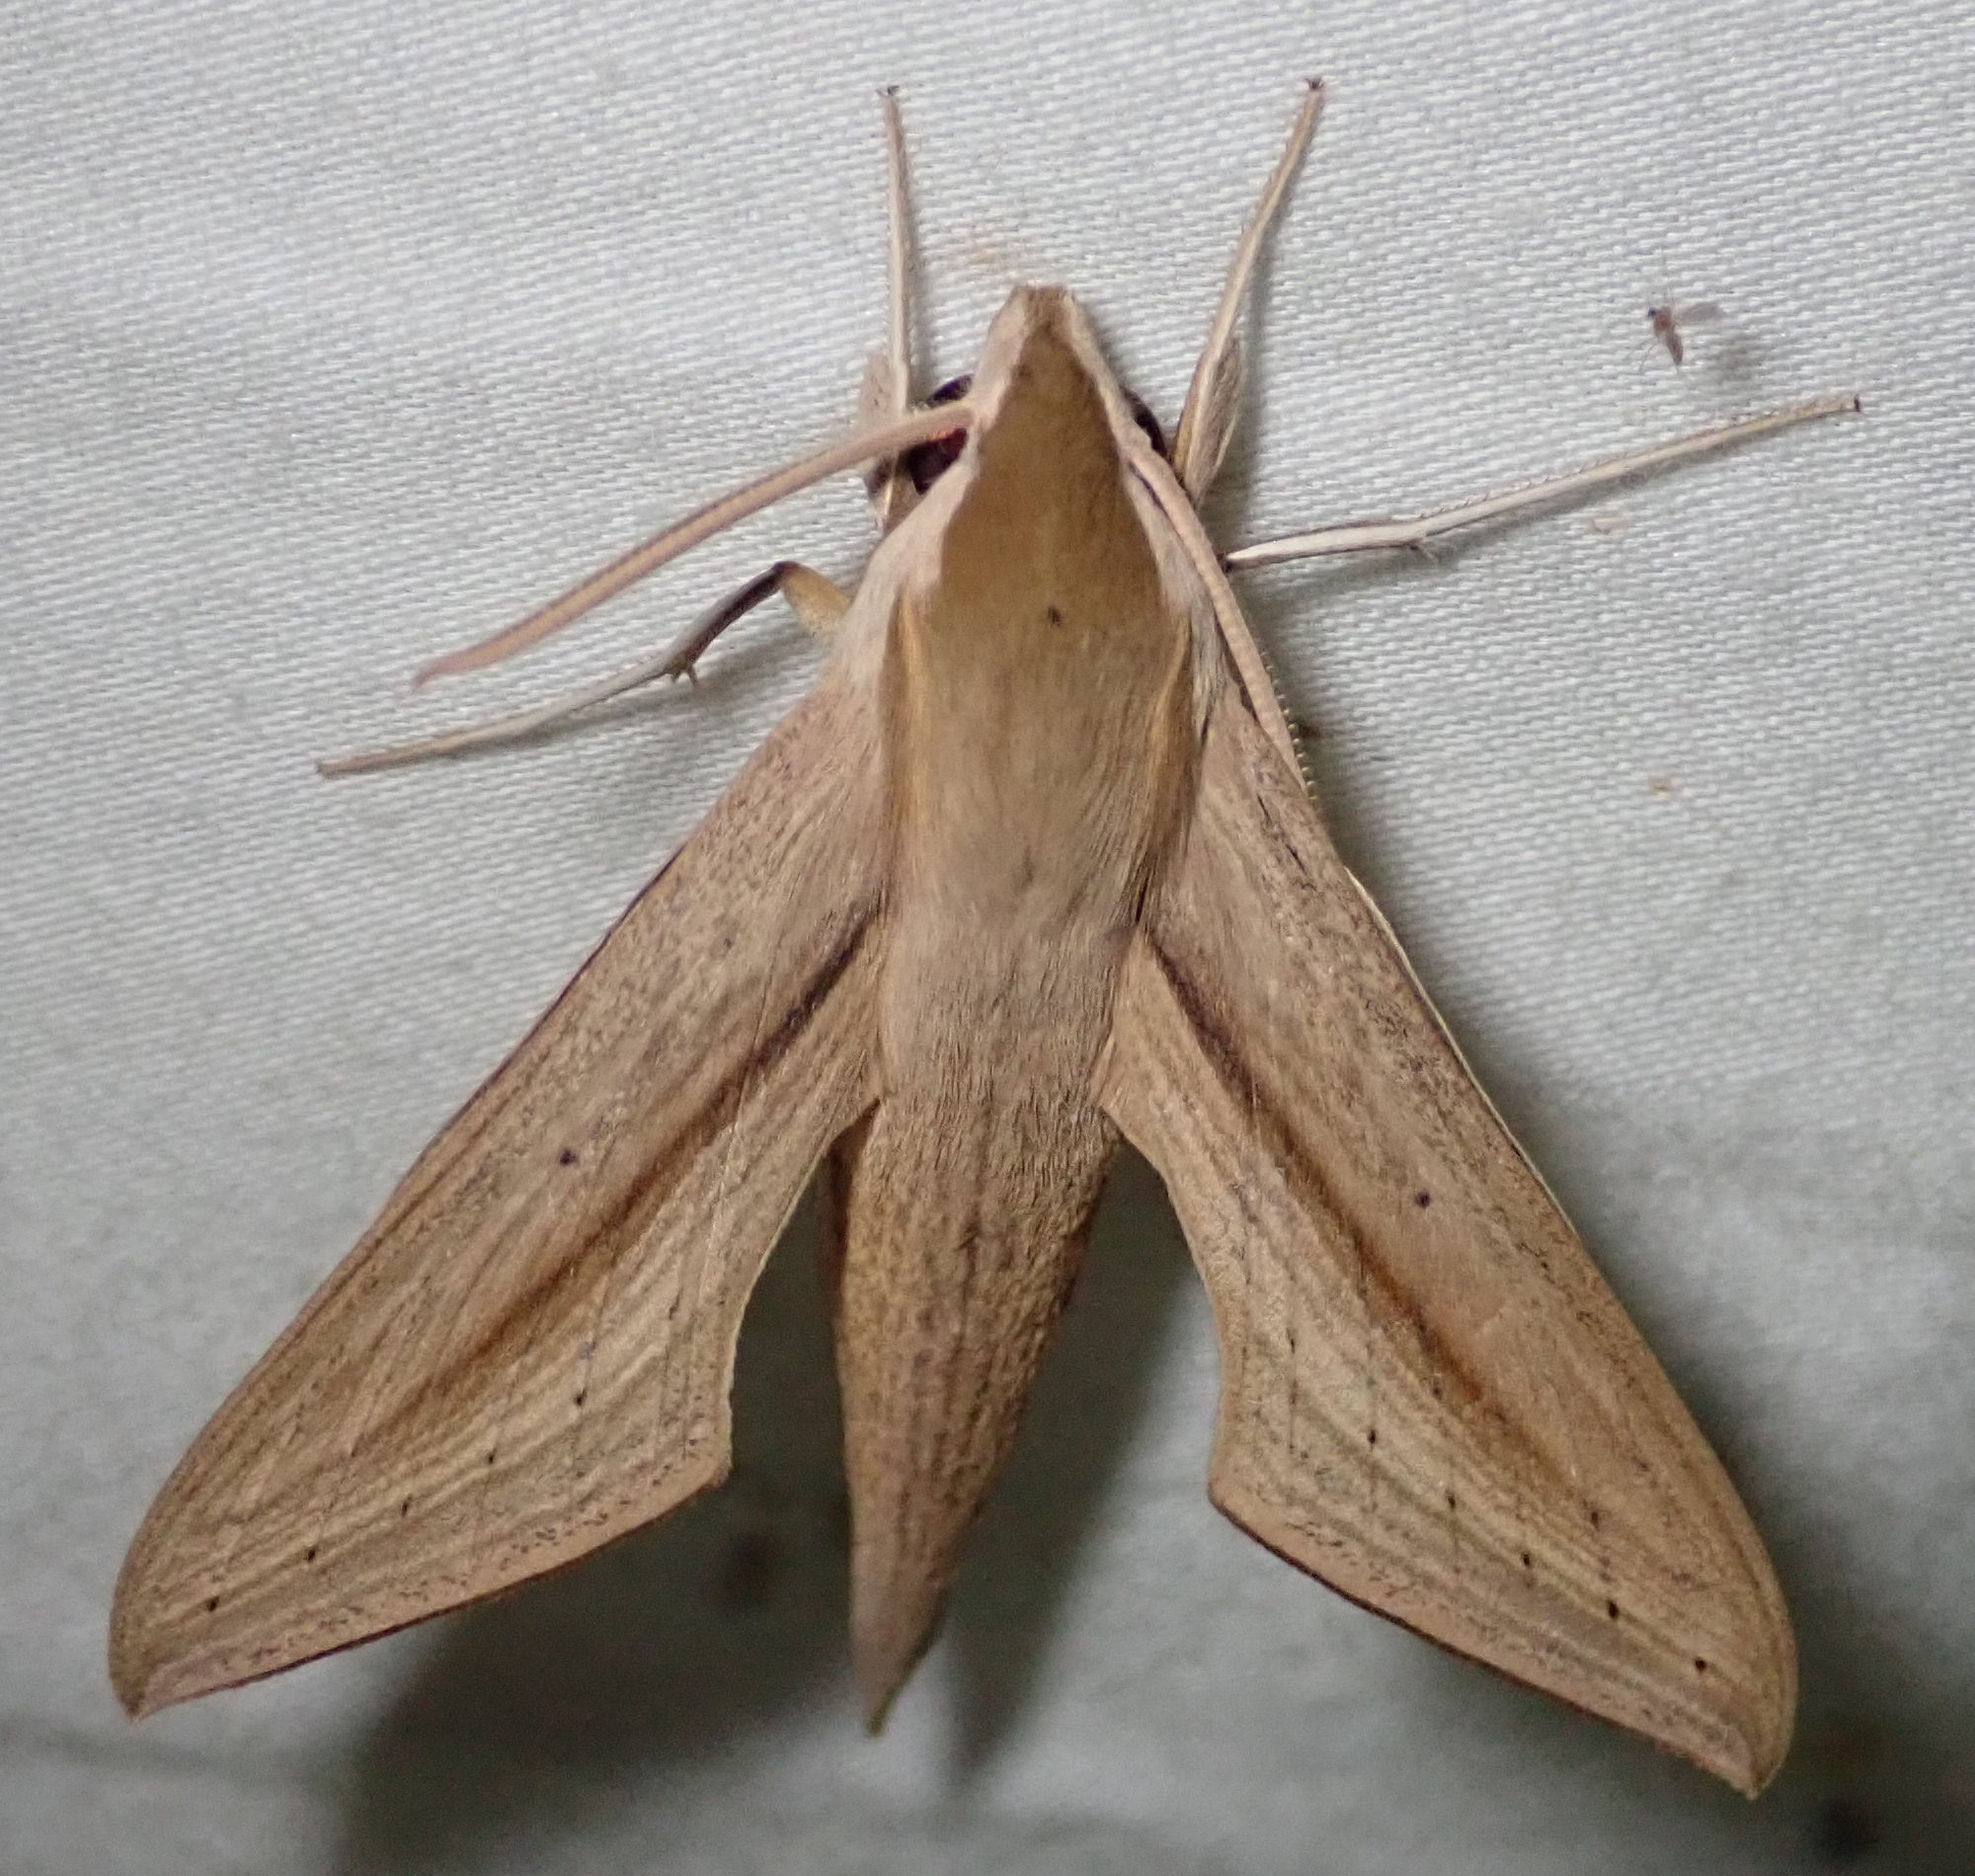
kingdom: Animalia
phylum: Arthropoda
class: Insecta
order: Lepidoptera
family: Sphingidae
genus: Hippotion
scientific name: Hippotion balsaminae
